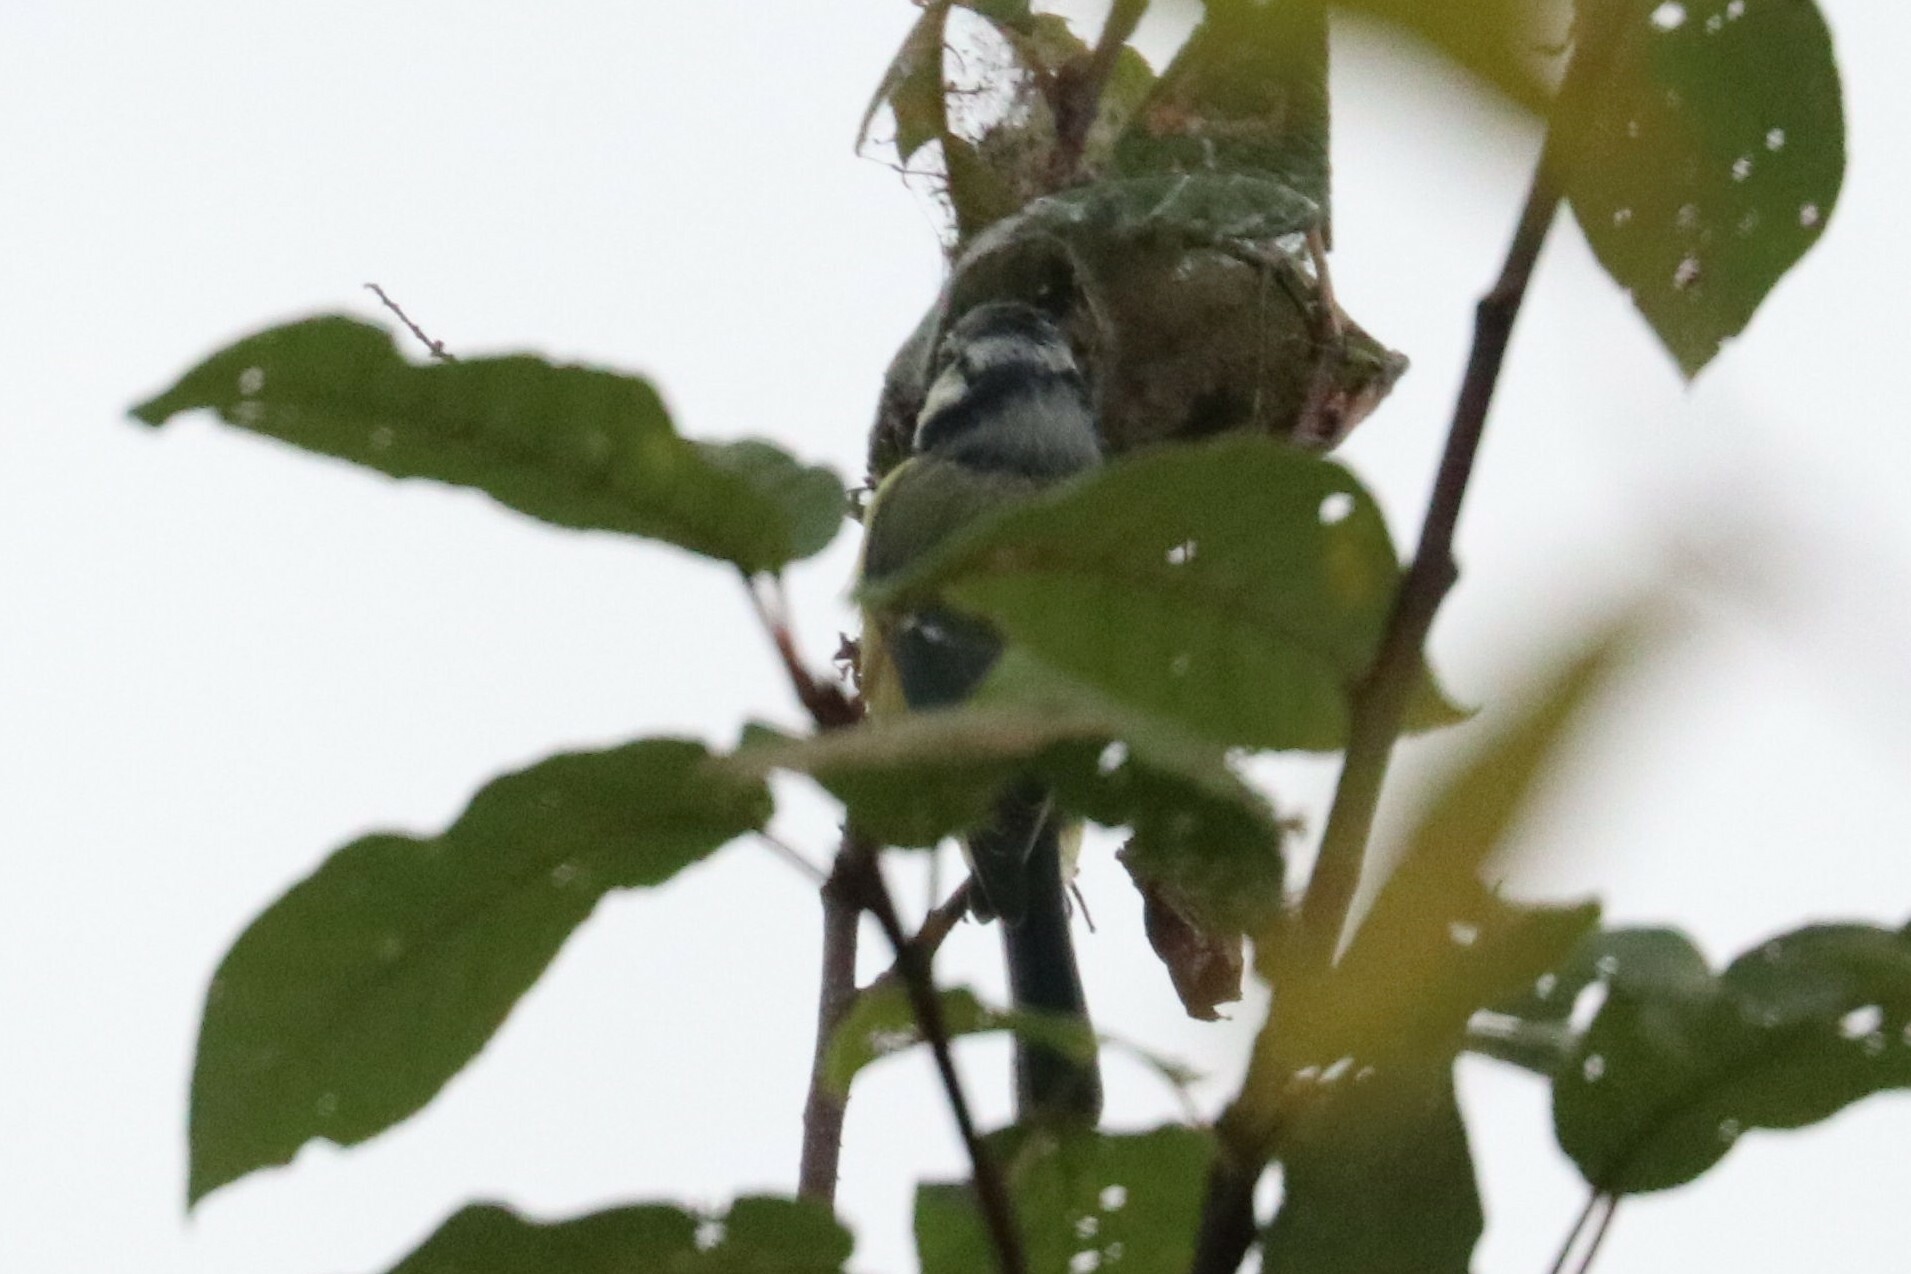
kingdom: Animalia
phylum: Chordata
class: Aves
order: Passeriformes
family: Paridae
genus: Cyanistes
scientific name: Cyanistes caeruleus
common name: Eurasian blue tit
